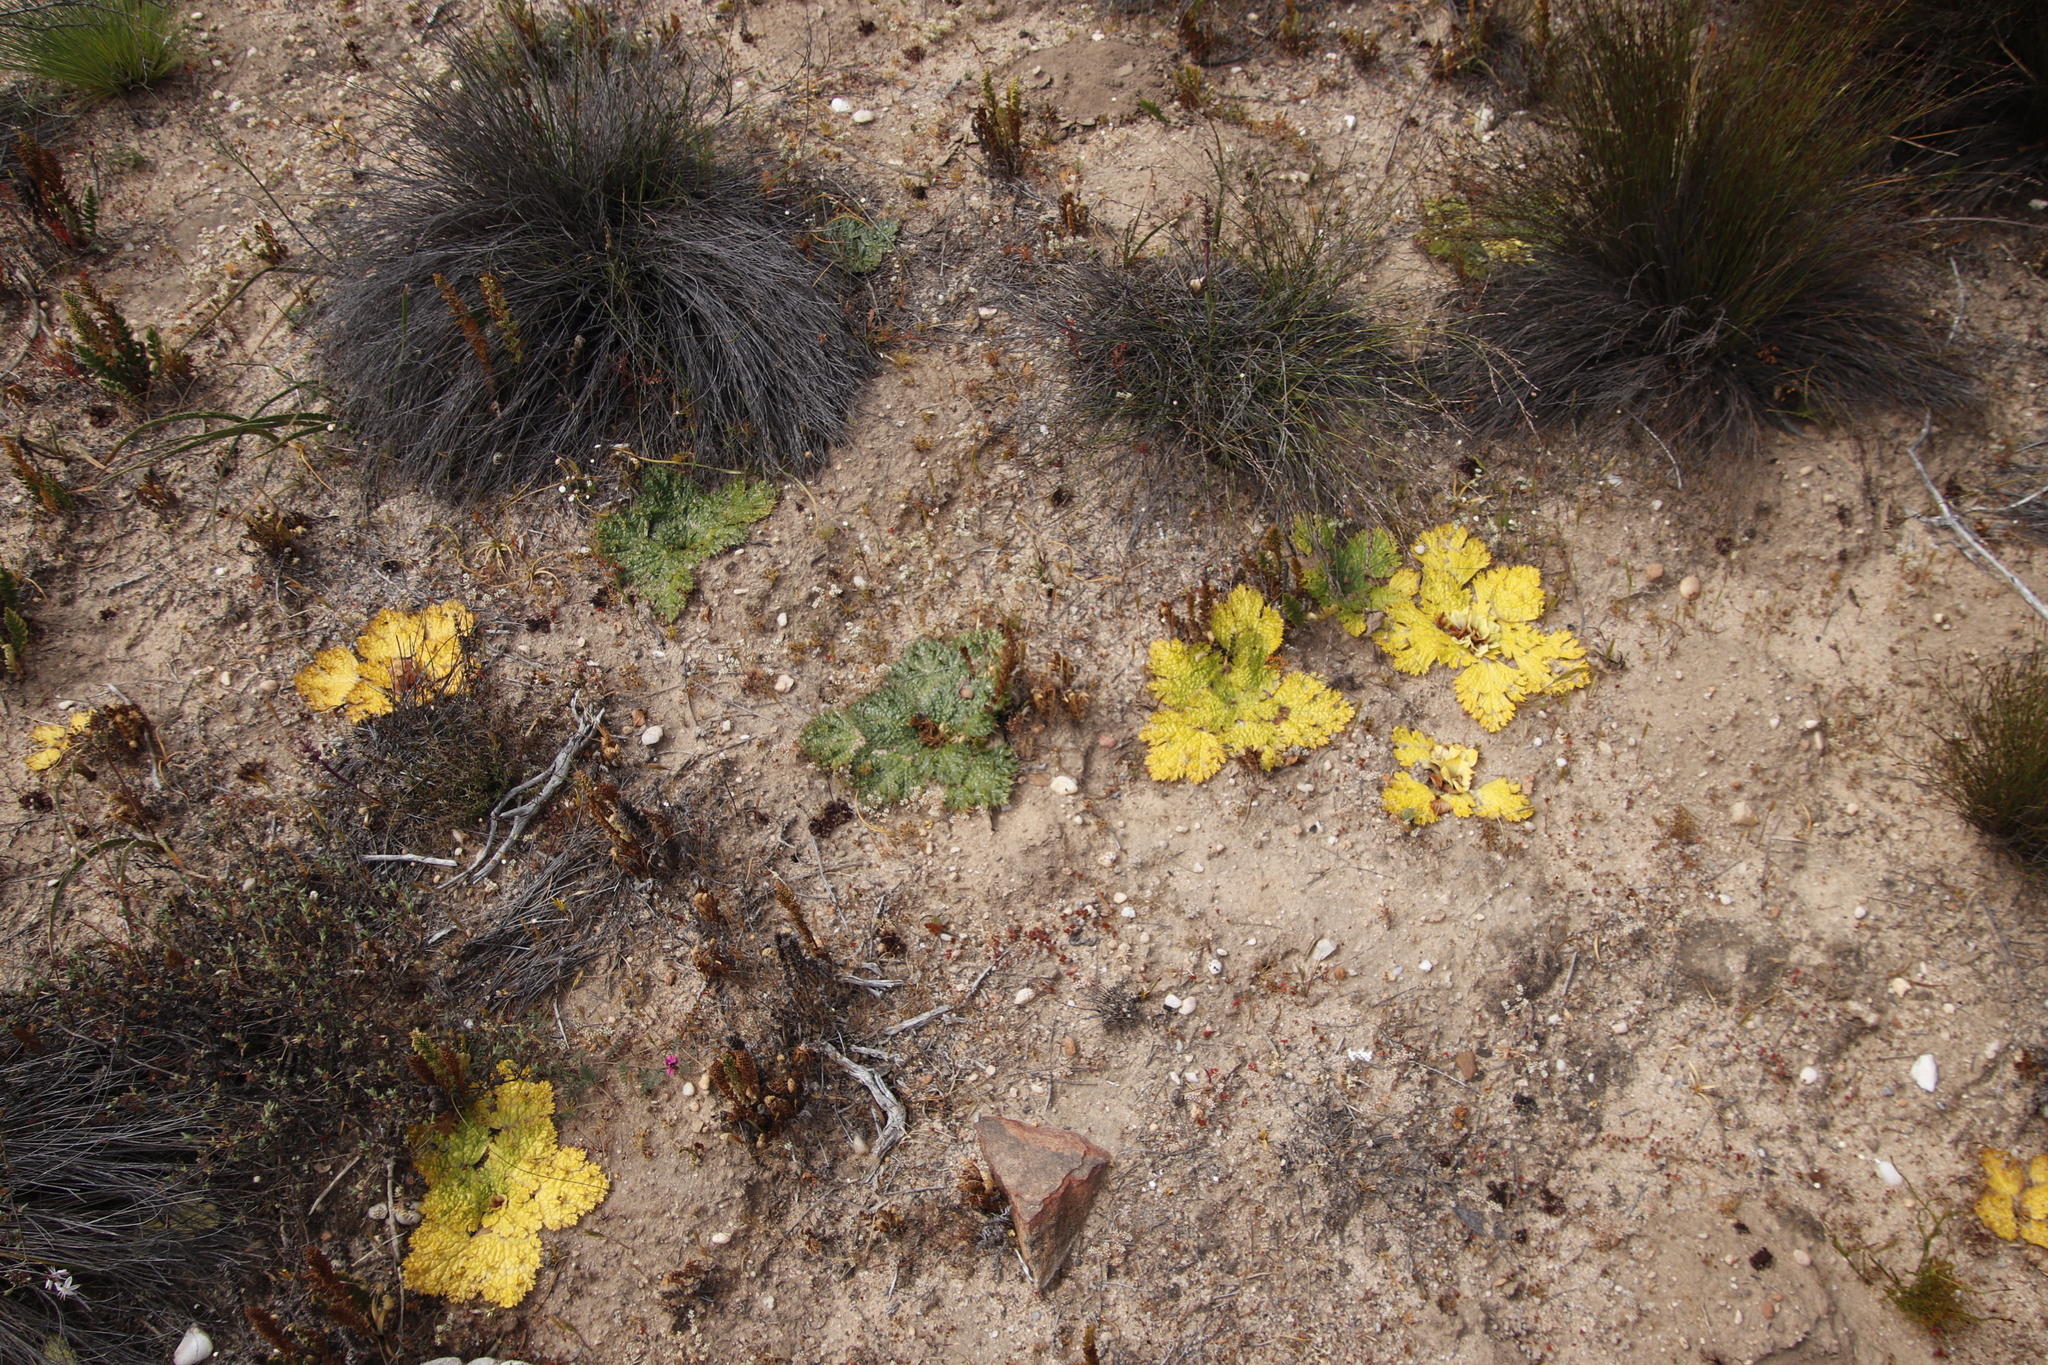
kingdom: Plantae
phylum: Tracheophyta
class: Magnoliopsida
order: Apiales
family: Apiaceae
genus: Arctopus
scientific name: Arctopus monacanthus
